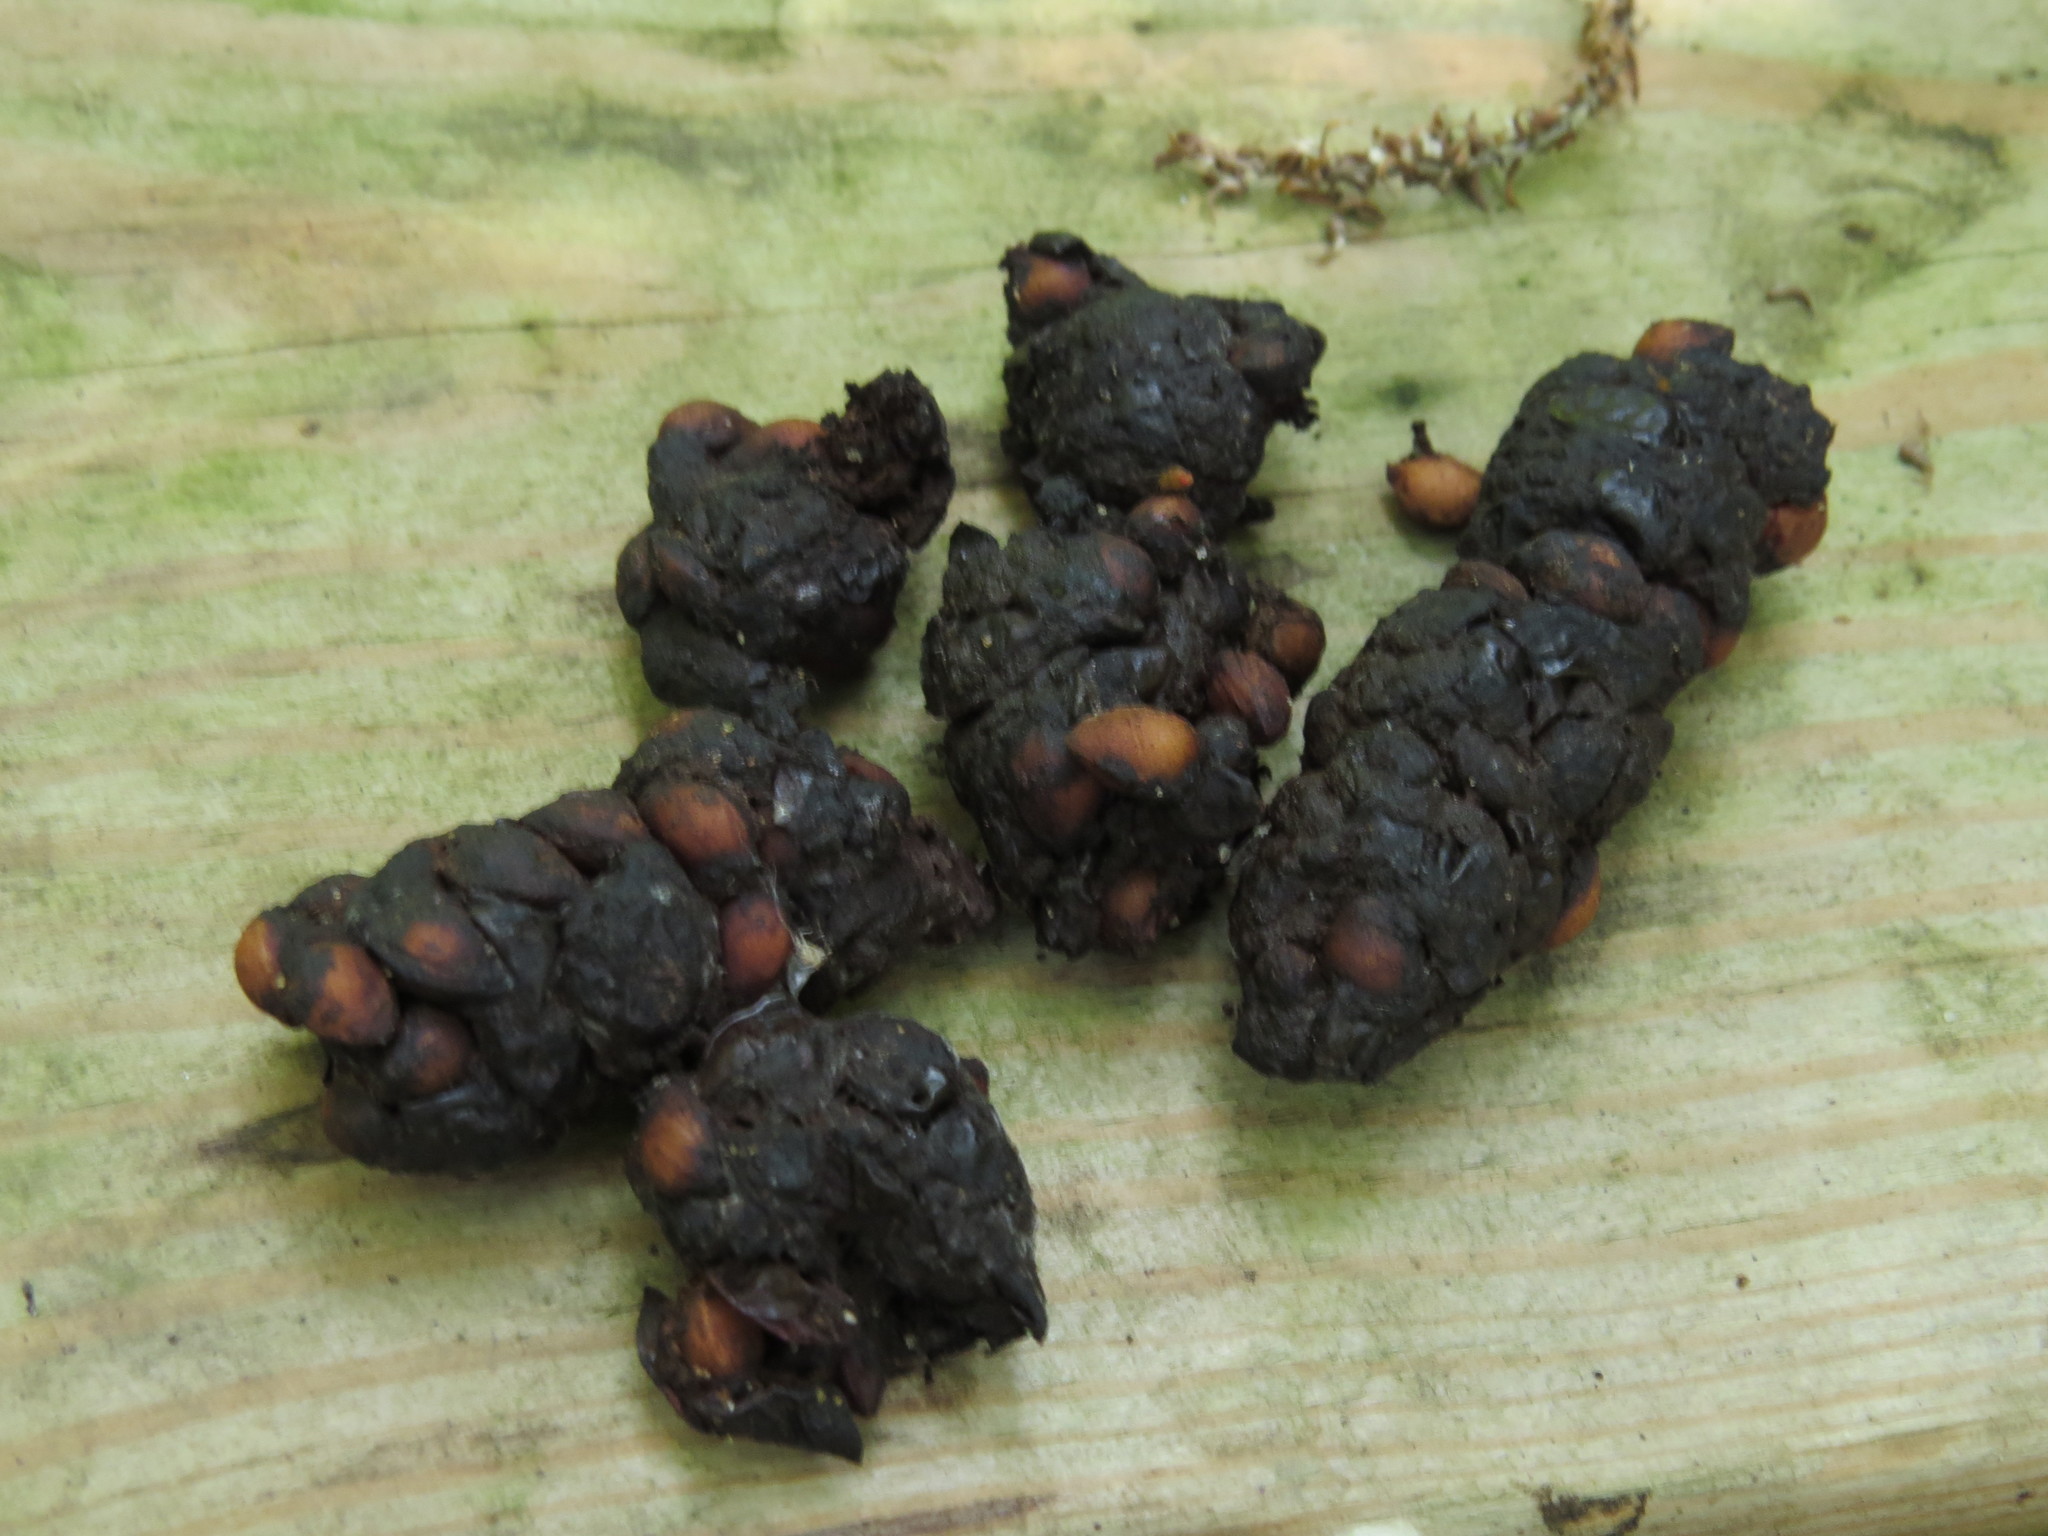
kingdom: Animalia
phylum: Chordata
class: Mammalia
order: Carnivora
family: Procyonidae
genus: Procyon
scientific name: Procyon lotor
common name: Raccoon
